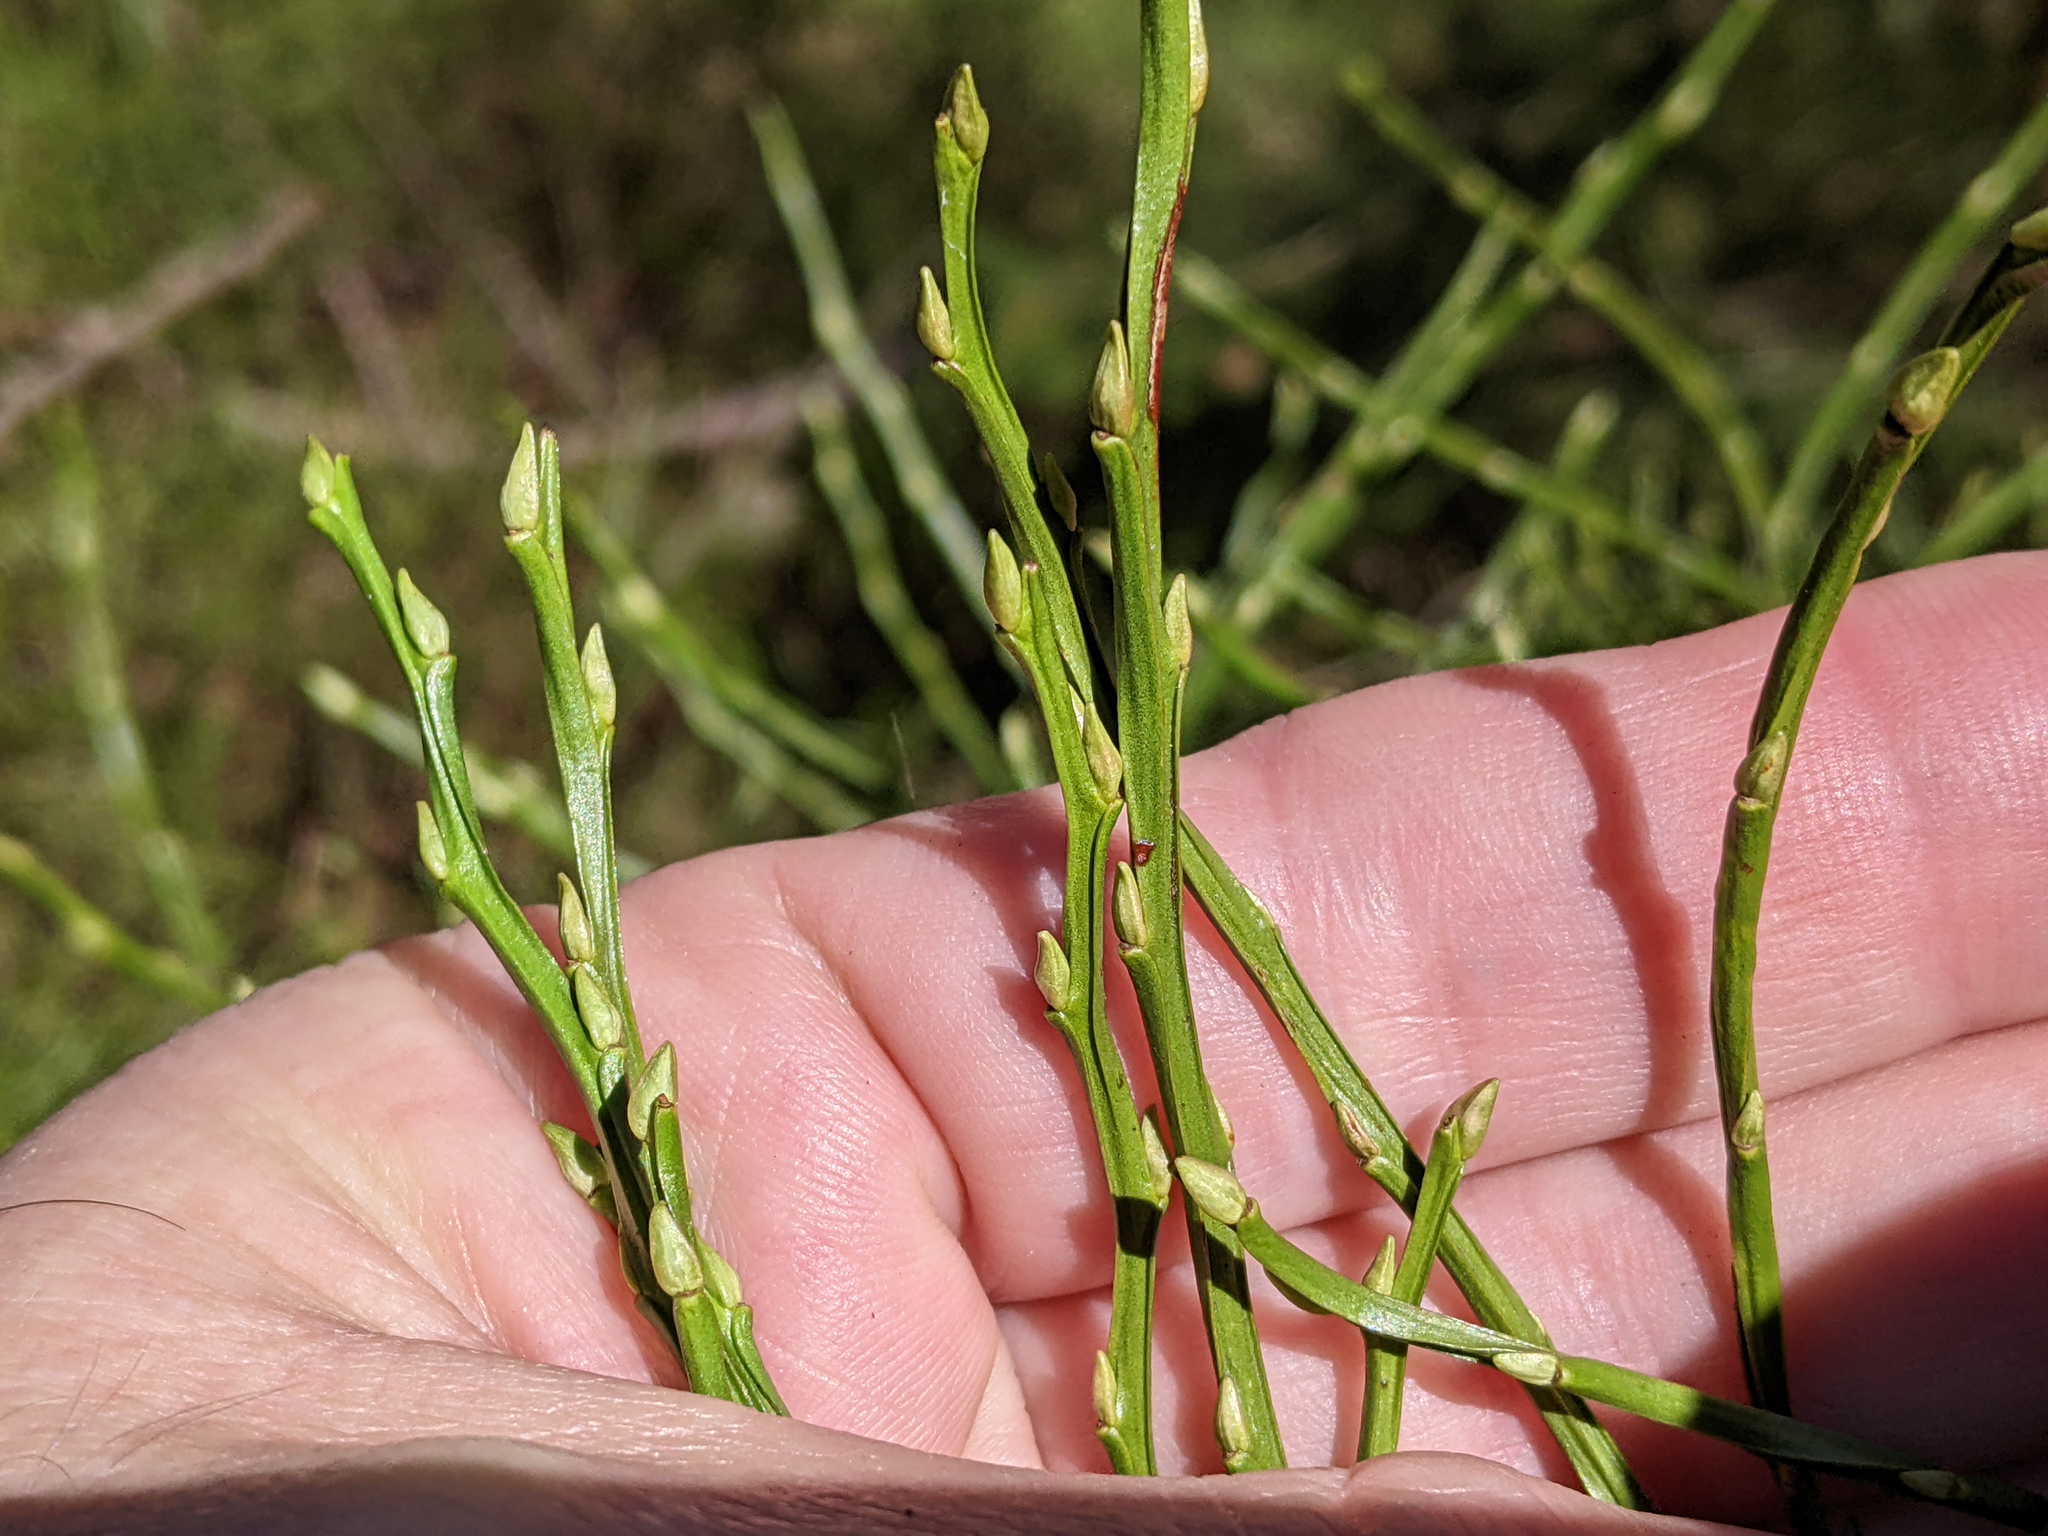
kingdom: Plantae
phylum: Tracheophyta
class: Magnoliopsida
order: Ericales
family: Ericaceae
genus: Vaccinium
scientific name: Vaccinium myrtillus
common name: Bilberry
